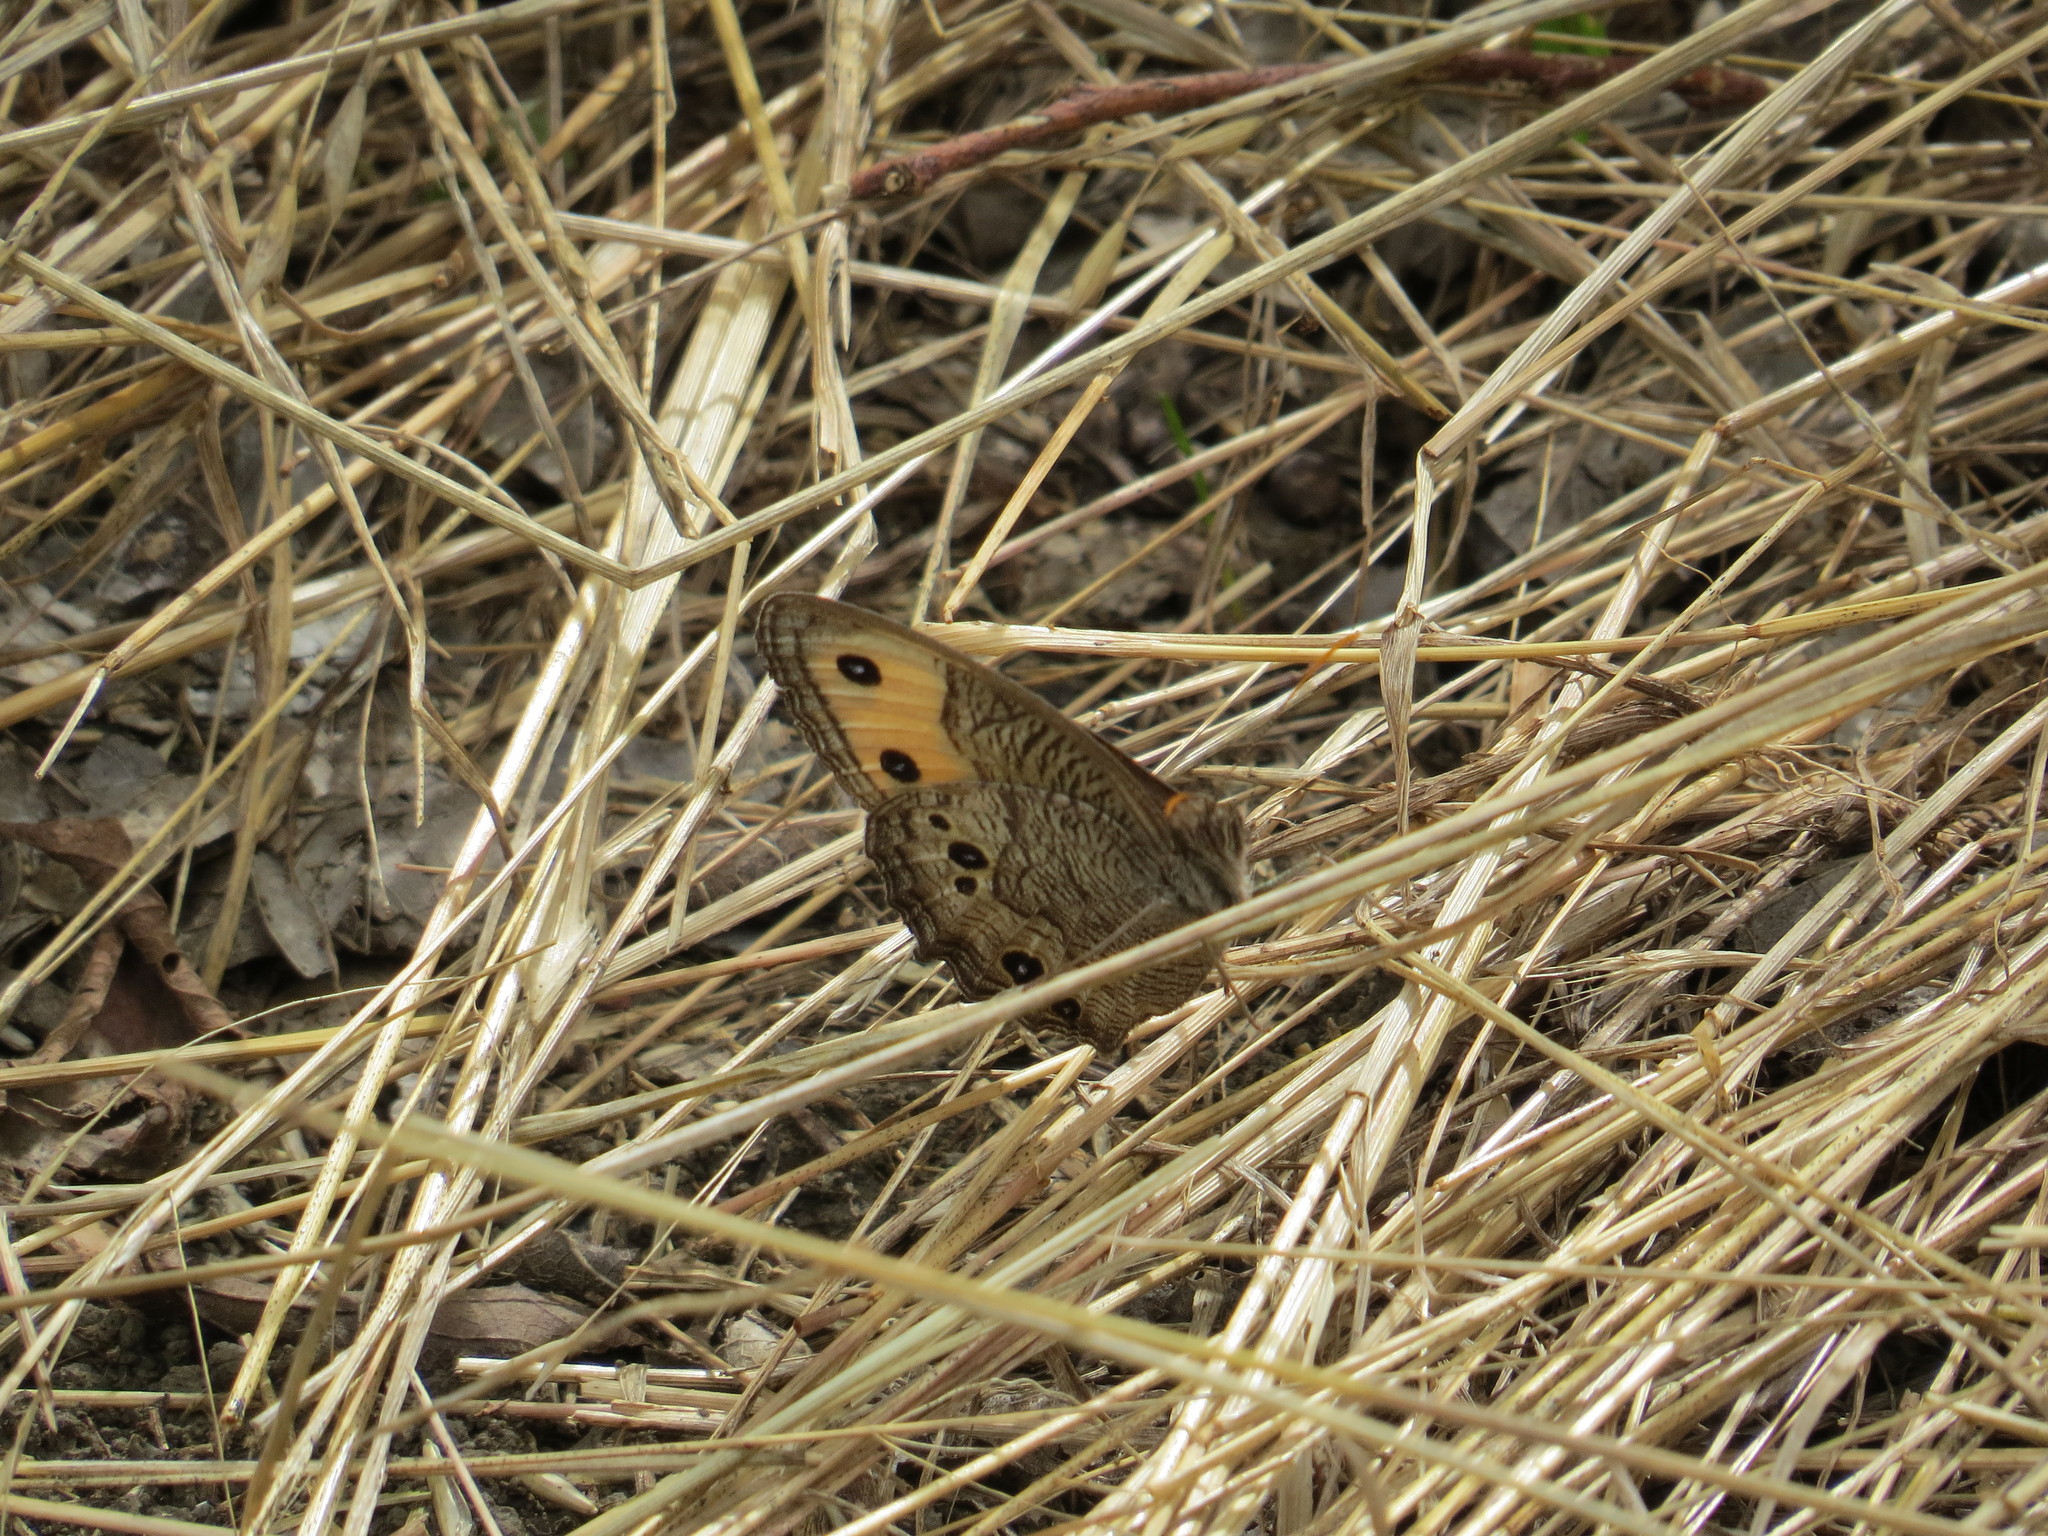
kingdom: Animalia
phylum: Arthropoda
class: Insecta
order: Lepidoptera
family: Nymphalidae
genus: Cercyonis
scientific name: Cercyonis pegala
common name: Common wood-nymph
